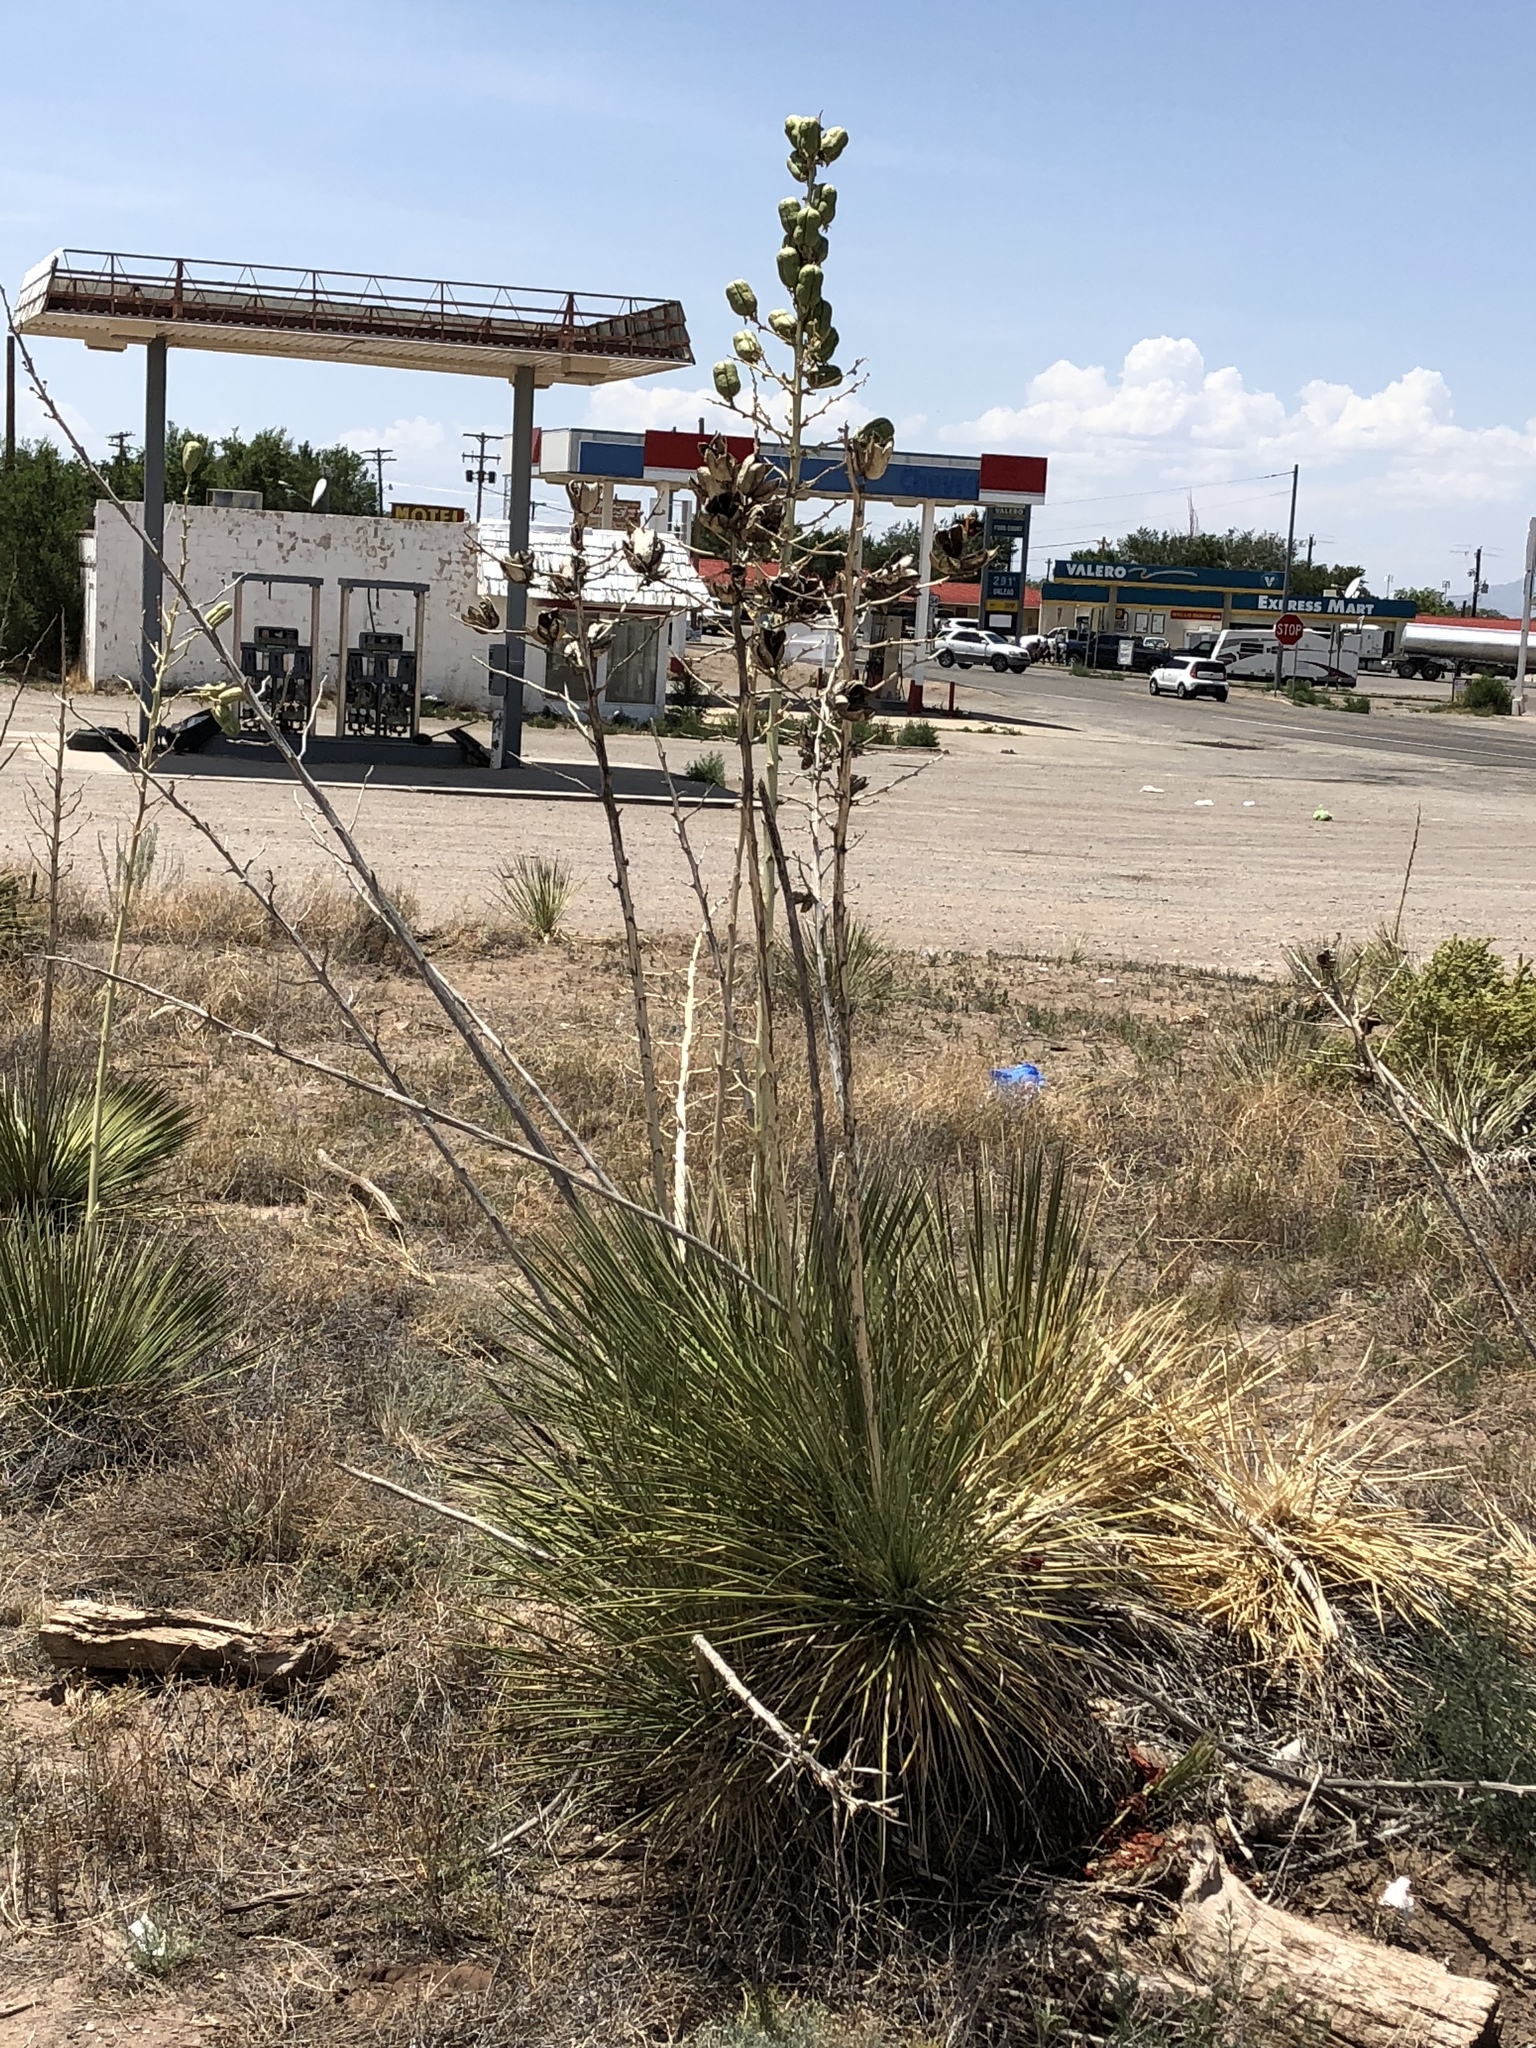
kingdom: Plantae
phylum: Tracheophyta
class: Liliopsida
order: Asparagales
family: Asparagaceae
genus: Yucca
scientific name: Yucca elata
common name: Palmella
